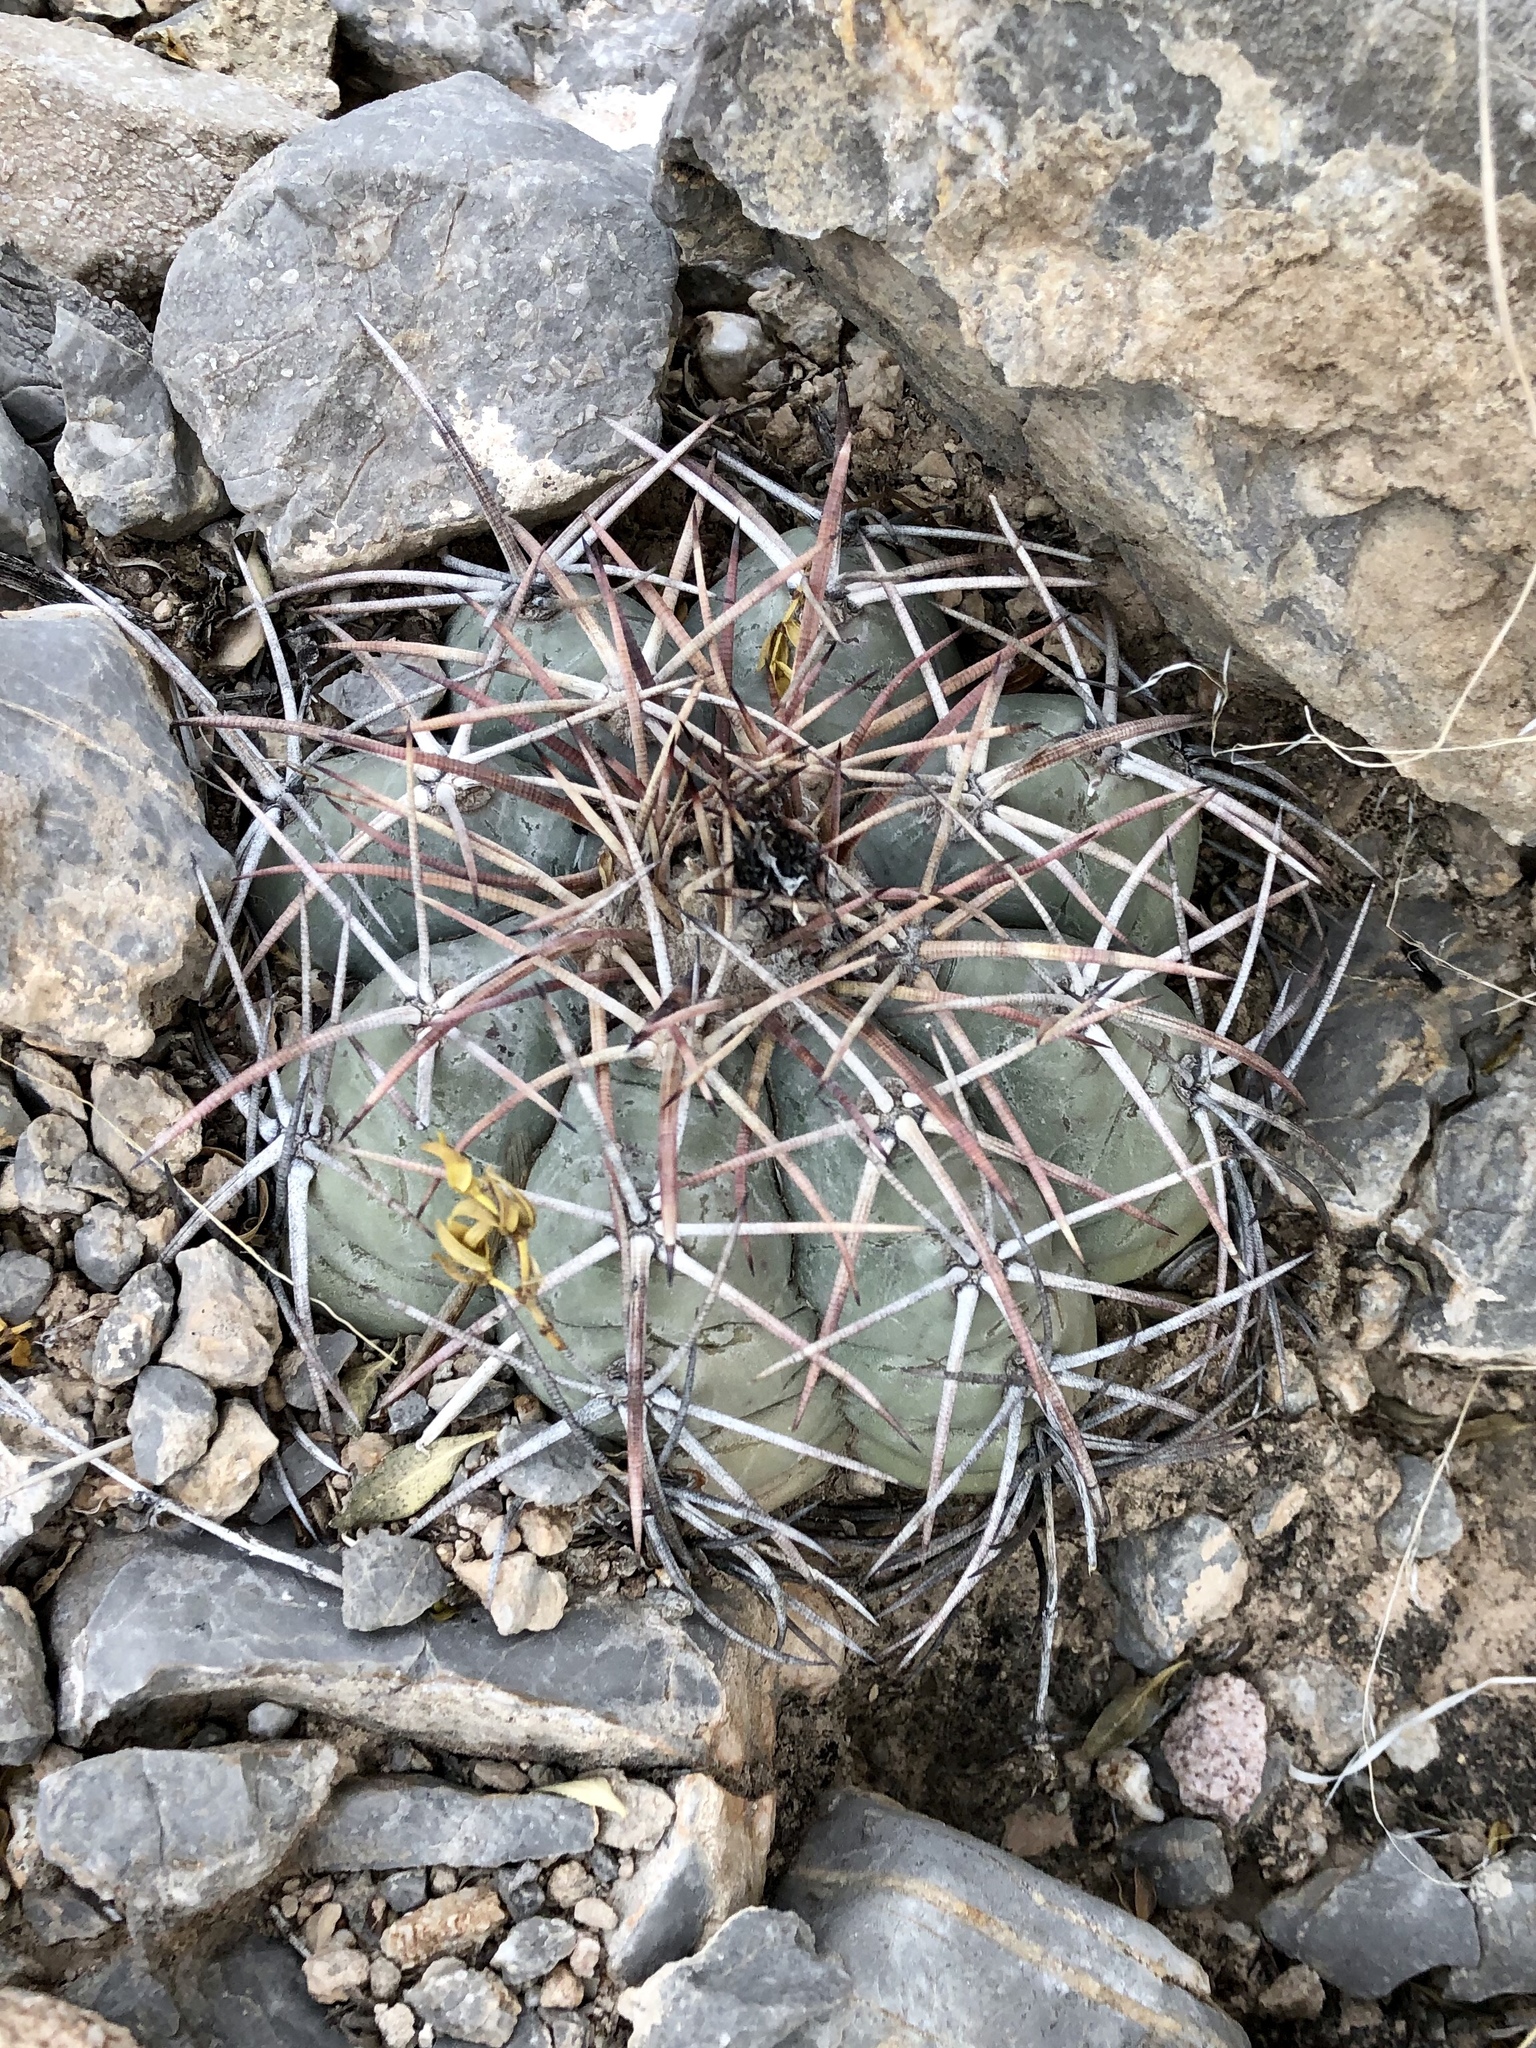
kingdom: Plantae
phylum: Tracheophyta
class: Magnoliopsida
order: Caryophyllales
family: Cactaceae
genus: Echinocactus
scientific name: Echinocactus horizonthalonius
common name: Devilshead
